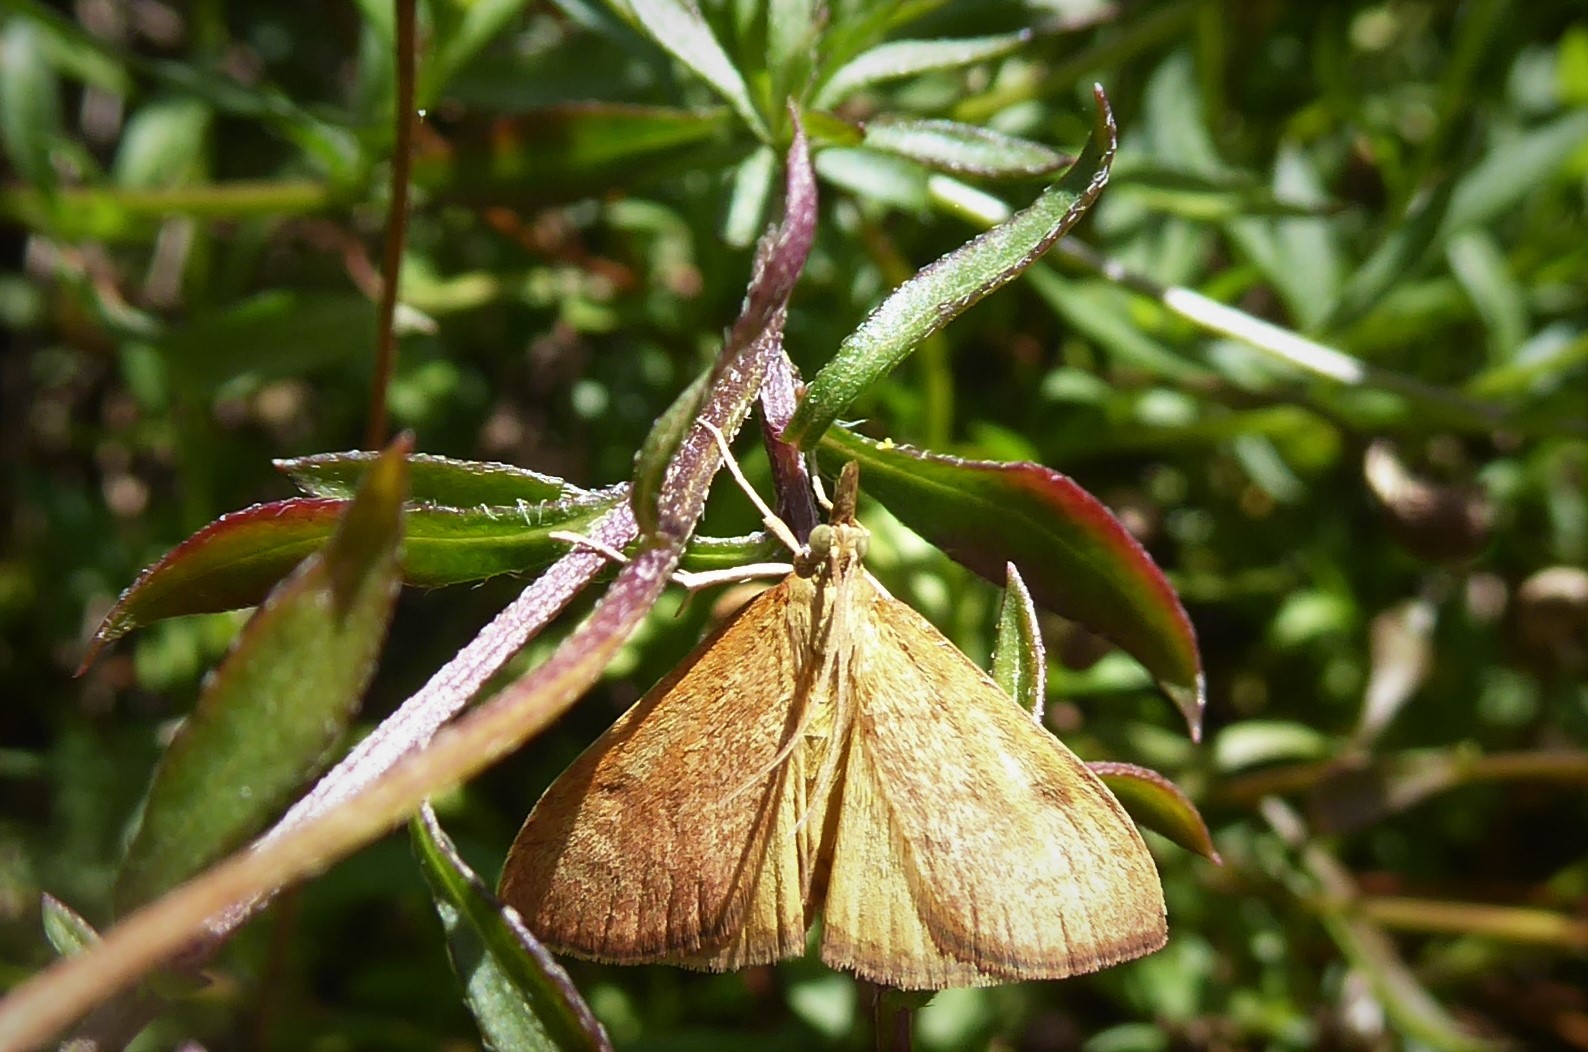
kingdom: Animalia
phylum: Arthropoda
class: Insecta
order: Lepidoptera
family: Crambidae
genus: Udea
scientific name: Udea Mnesictena flavidalis
